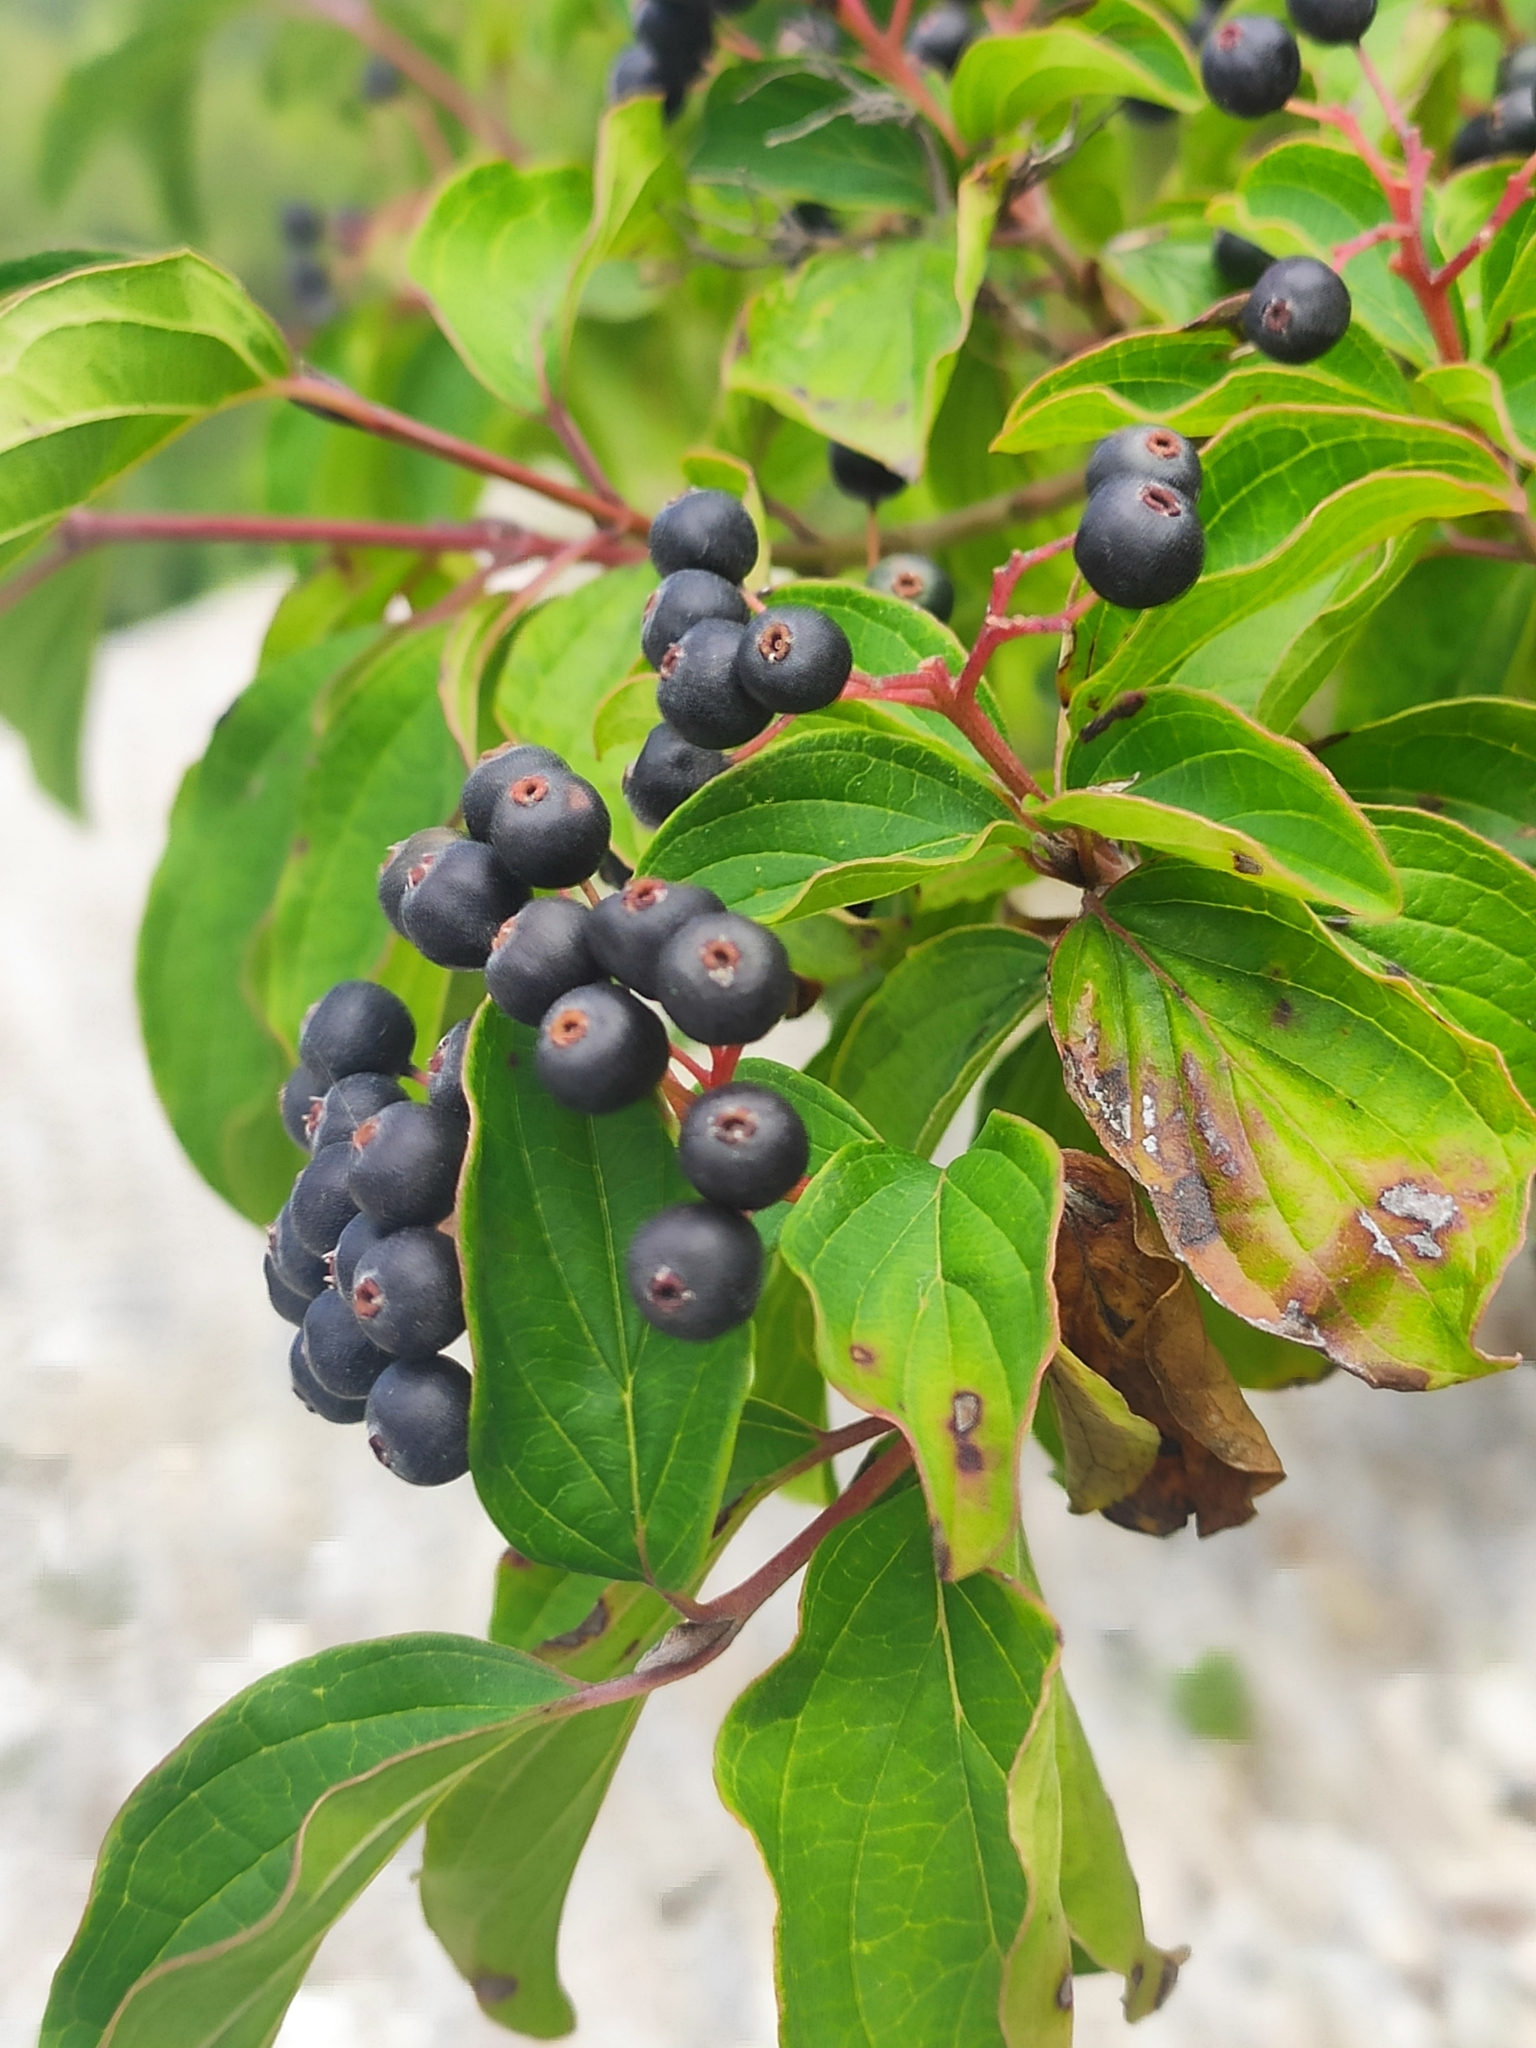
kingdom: Plantae
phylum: Tracheophyta
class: Magnoliopsida
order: Cornales
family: Cornaceae
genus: Cornus
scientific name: Cornus sanguinea
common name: Dogwood
